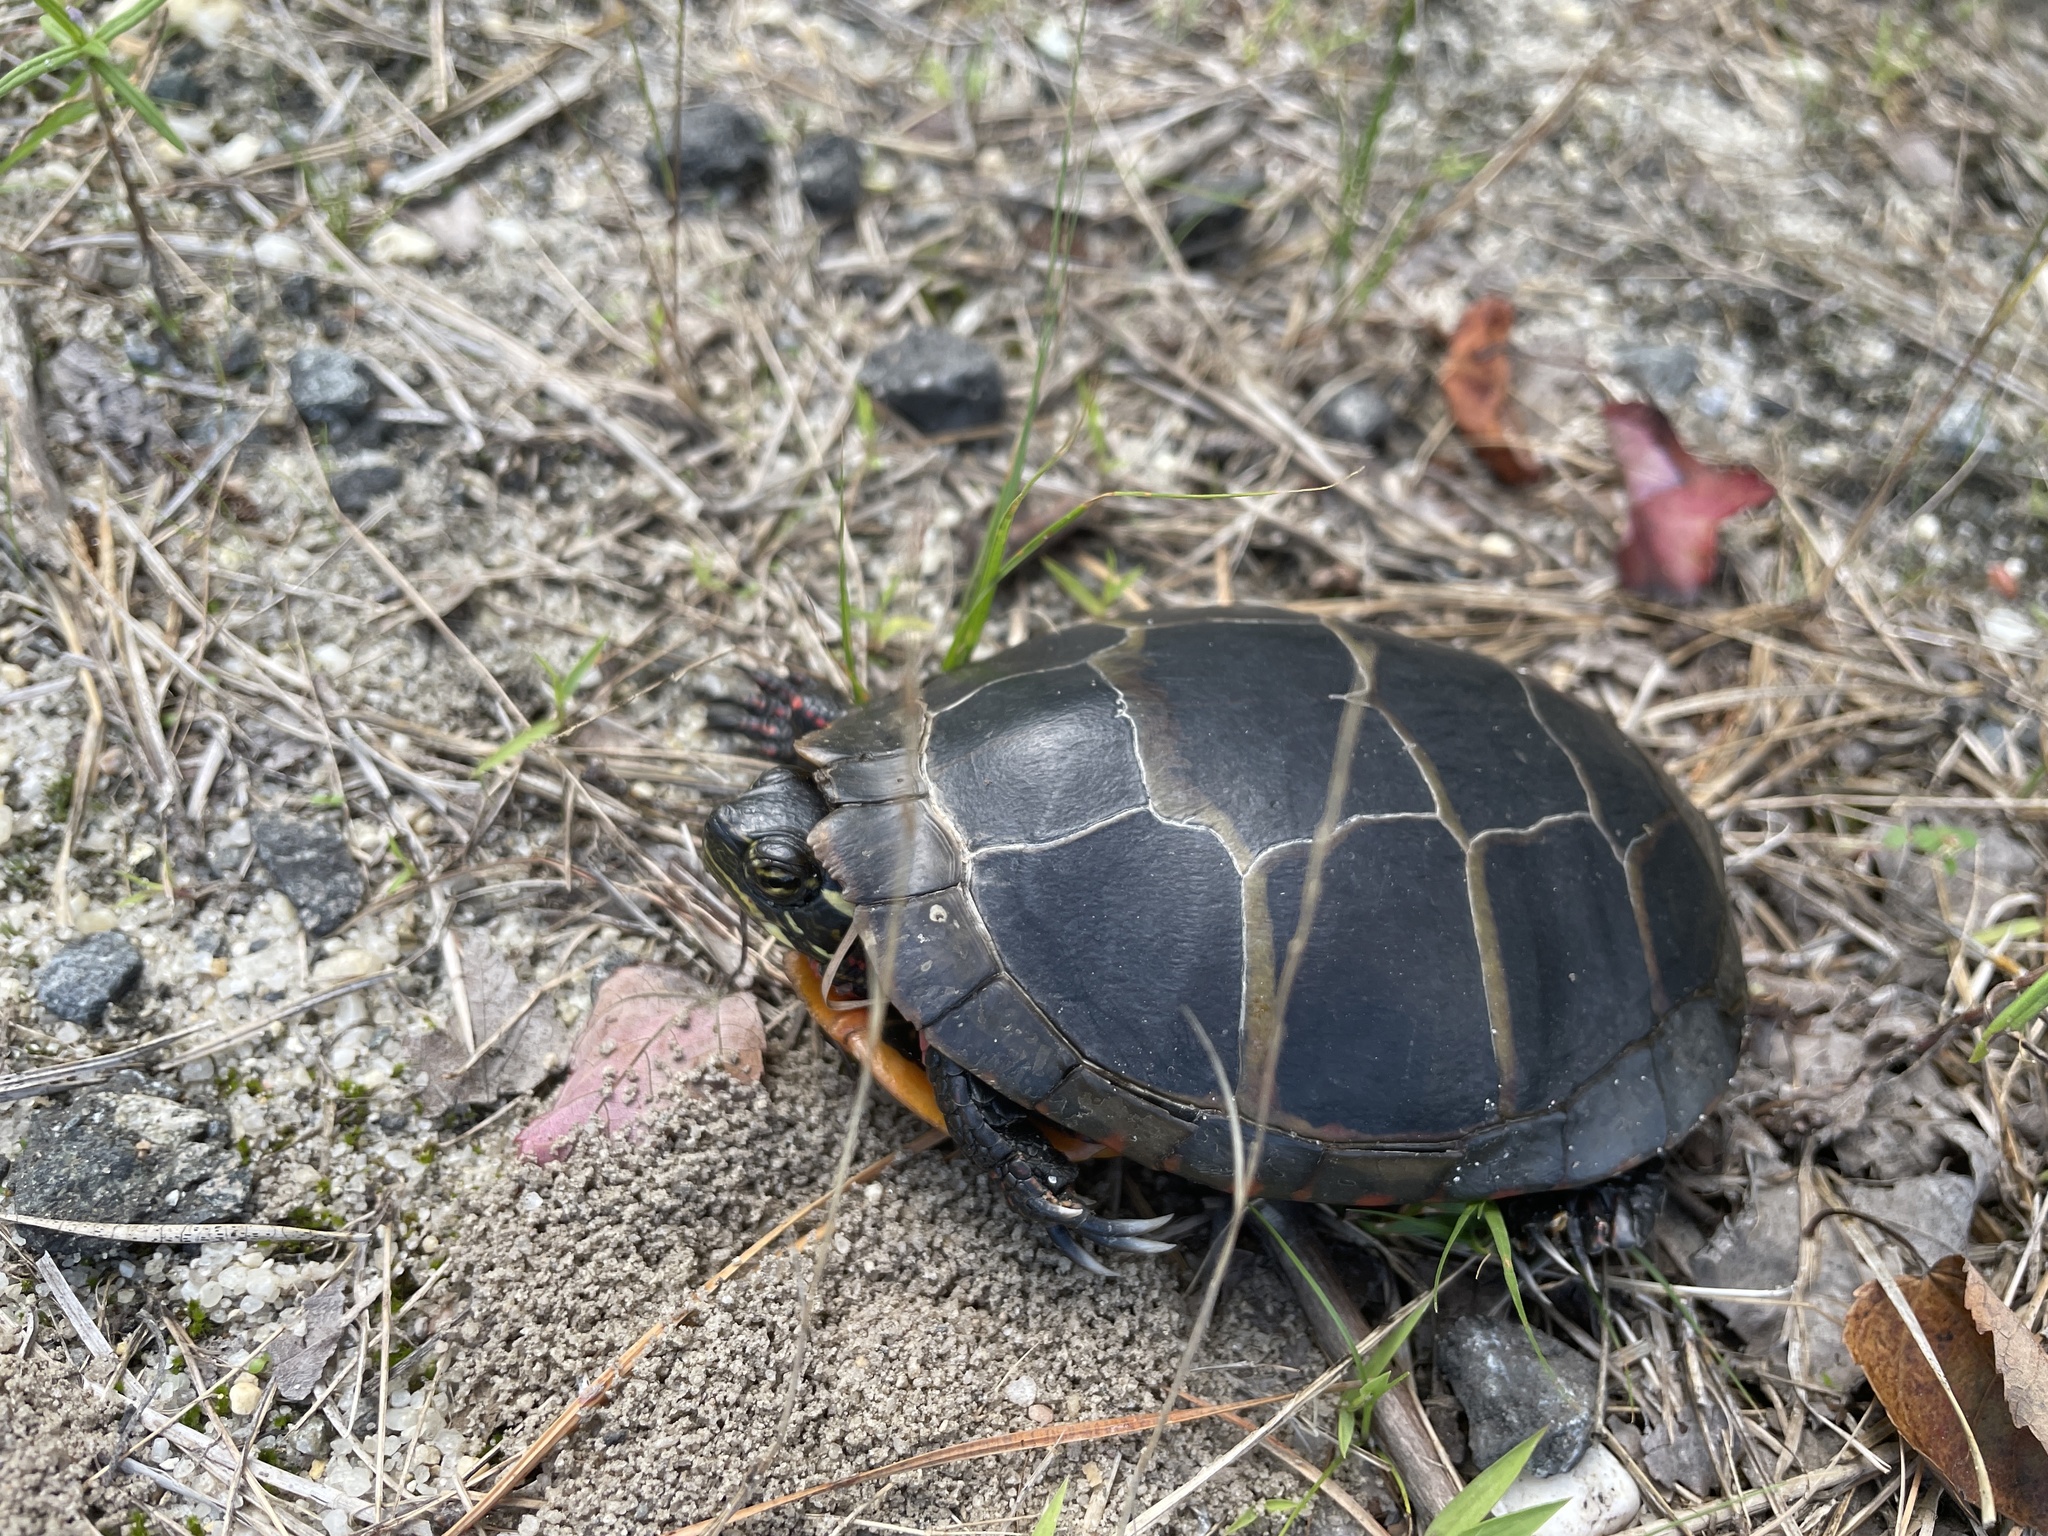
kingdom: Animalia
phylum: Chordata
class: Testudines
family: Emydidae
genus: Chrysemys
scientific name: Chrysemys picta
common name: Painted turtle
